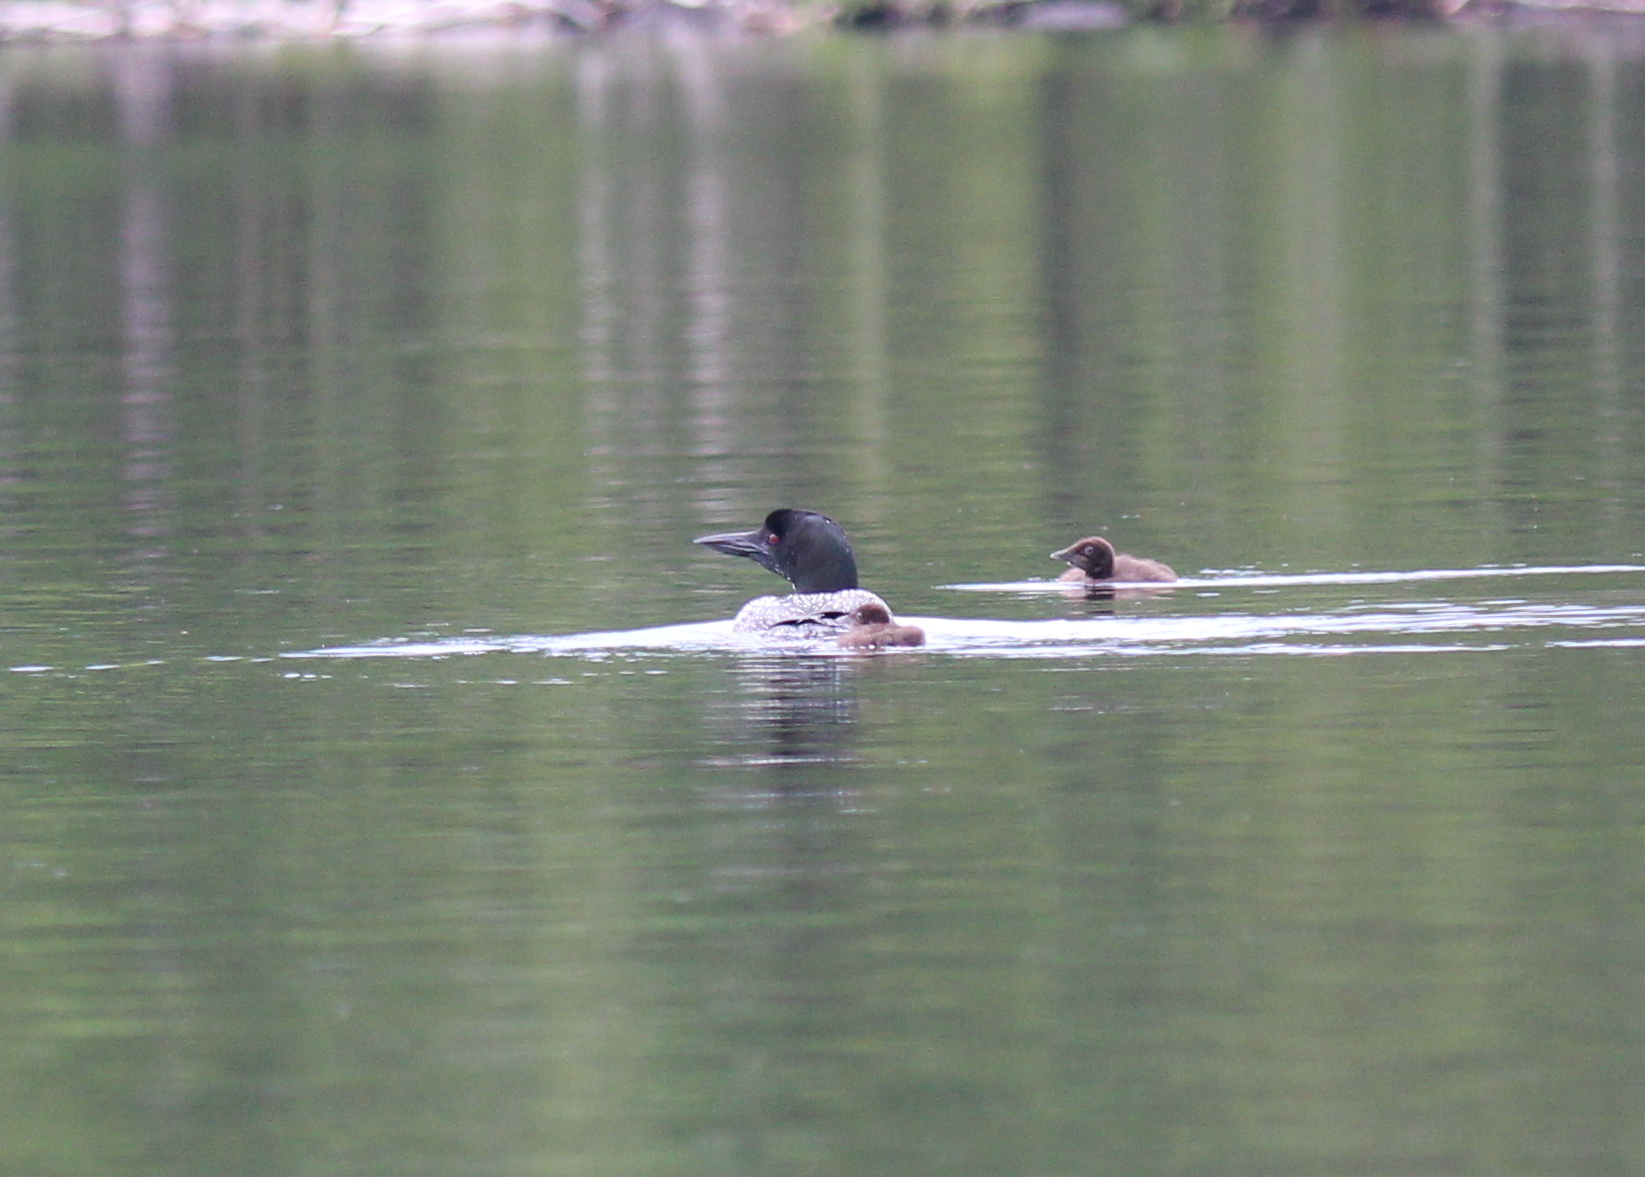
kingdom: Animalia
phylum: Chordata
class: Aves
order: Gaviiformes
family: Gaviidae
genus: Gavia
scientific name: Gavia immer
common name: Common loon
